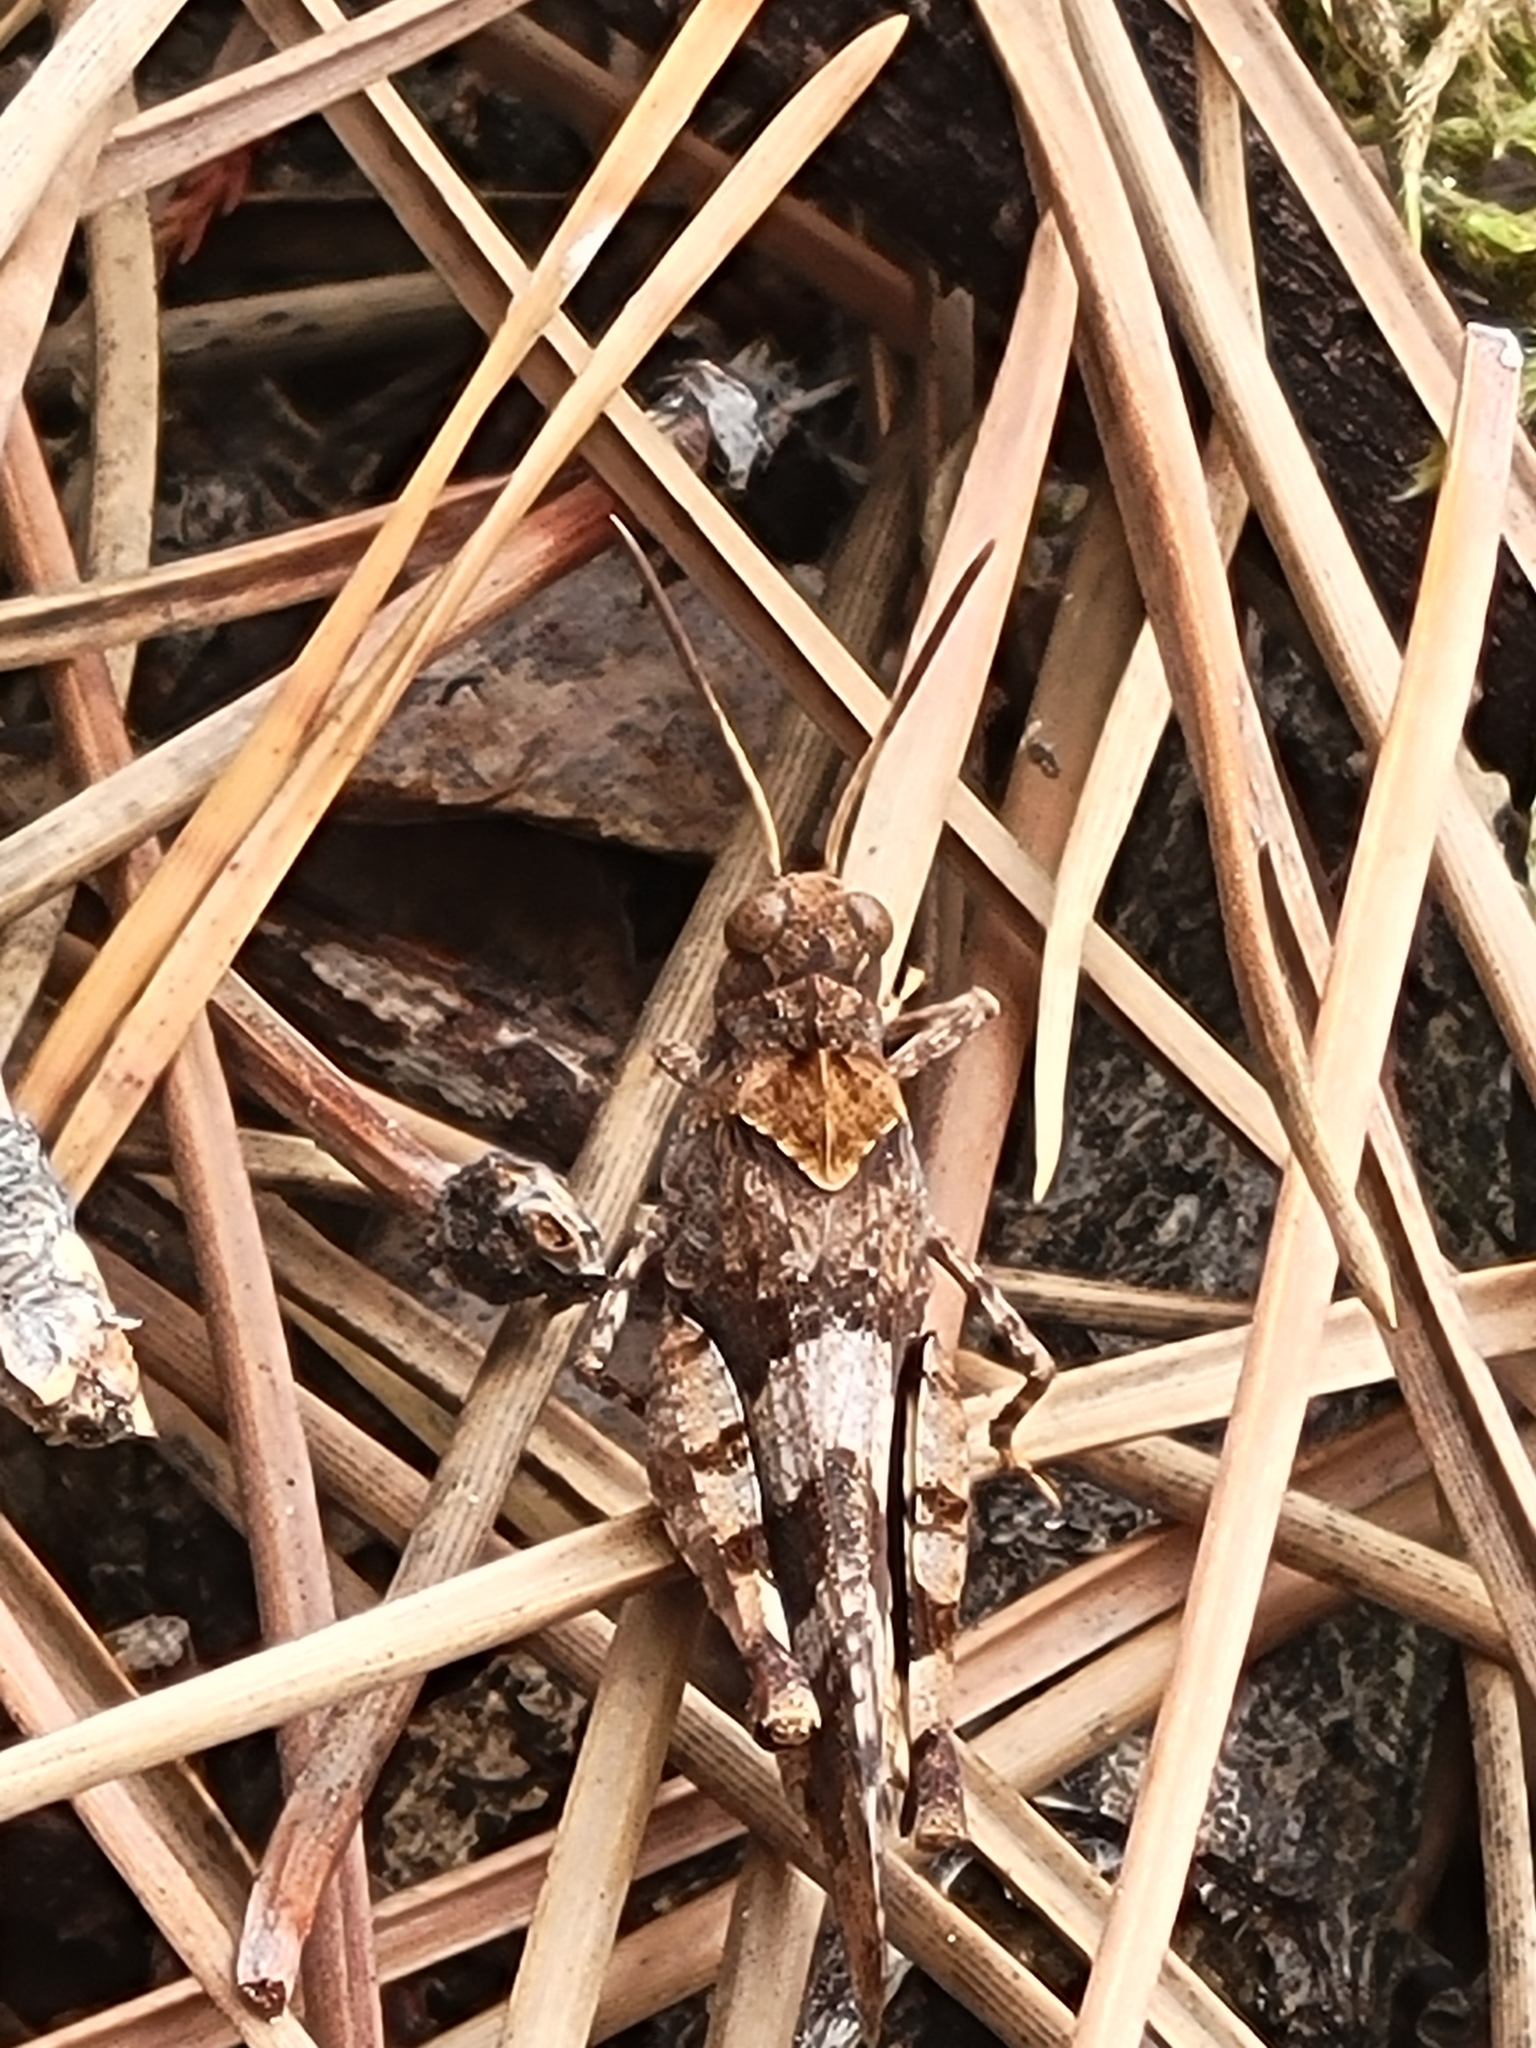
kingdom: Animalia
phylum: Arthropoda
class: Insecta
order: Orthoptera
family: Acrididae
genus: Oedipoda
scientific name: Oedipoda caerulescens
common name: Blue-winged grasshopper
